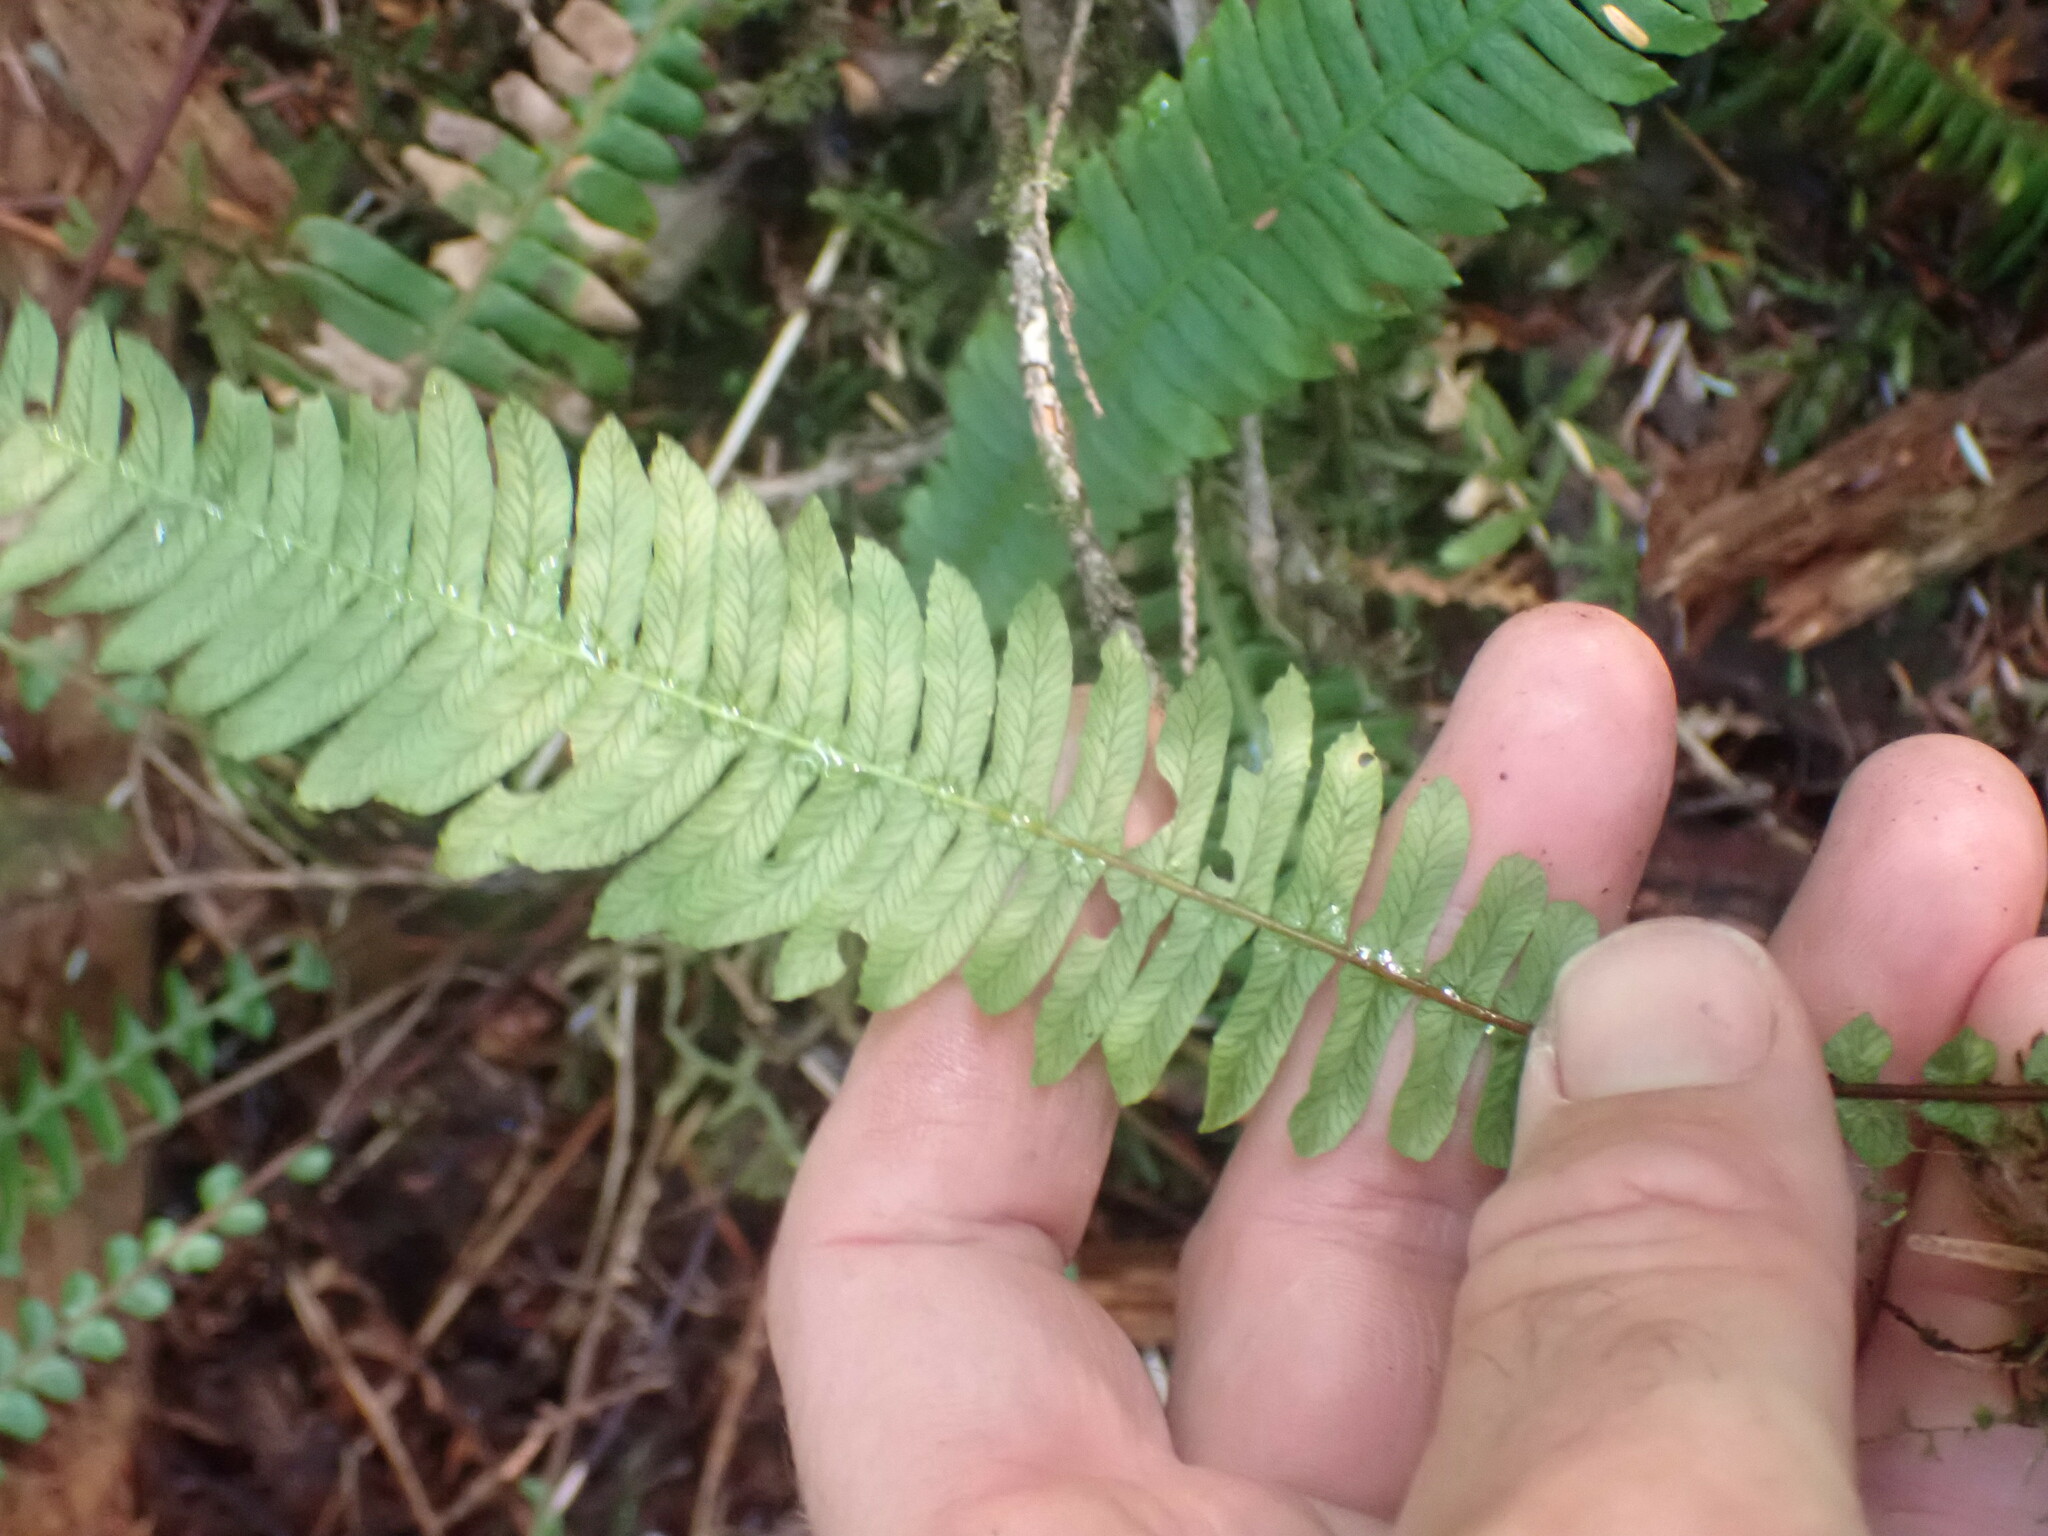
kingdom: Plantae
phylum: Tracheophyta
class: Polypodiopsida
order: Polypodiales
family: Blechnaceae
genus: Struthiopteris
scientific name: Struthiopteris spicant
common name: Deer fern
